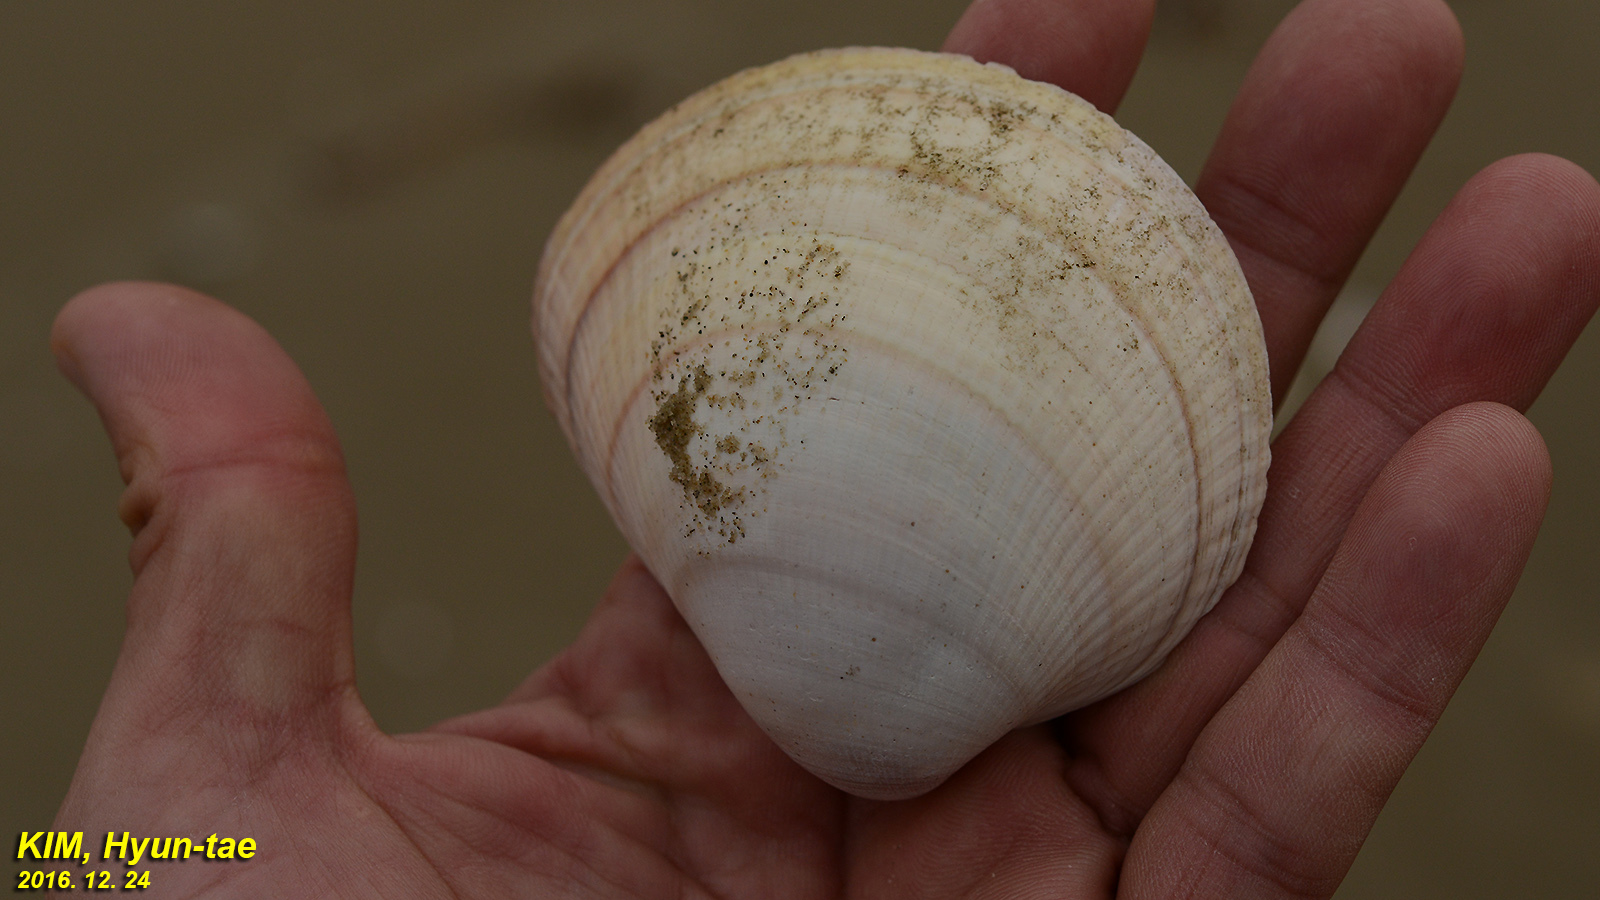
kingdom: Animalia
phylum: Mollusca
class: Bivalvia
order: Cardiida
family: Cardiidae
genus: Fulvia
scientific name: Fulvia mutica
